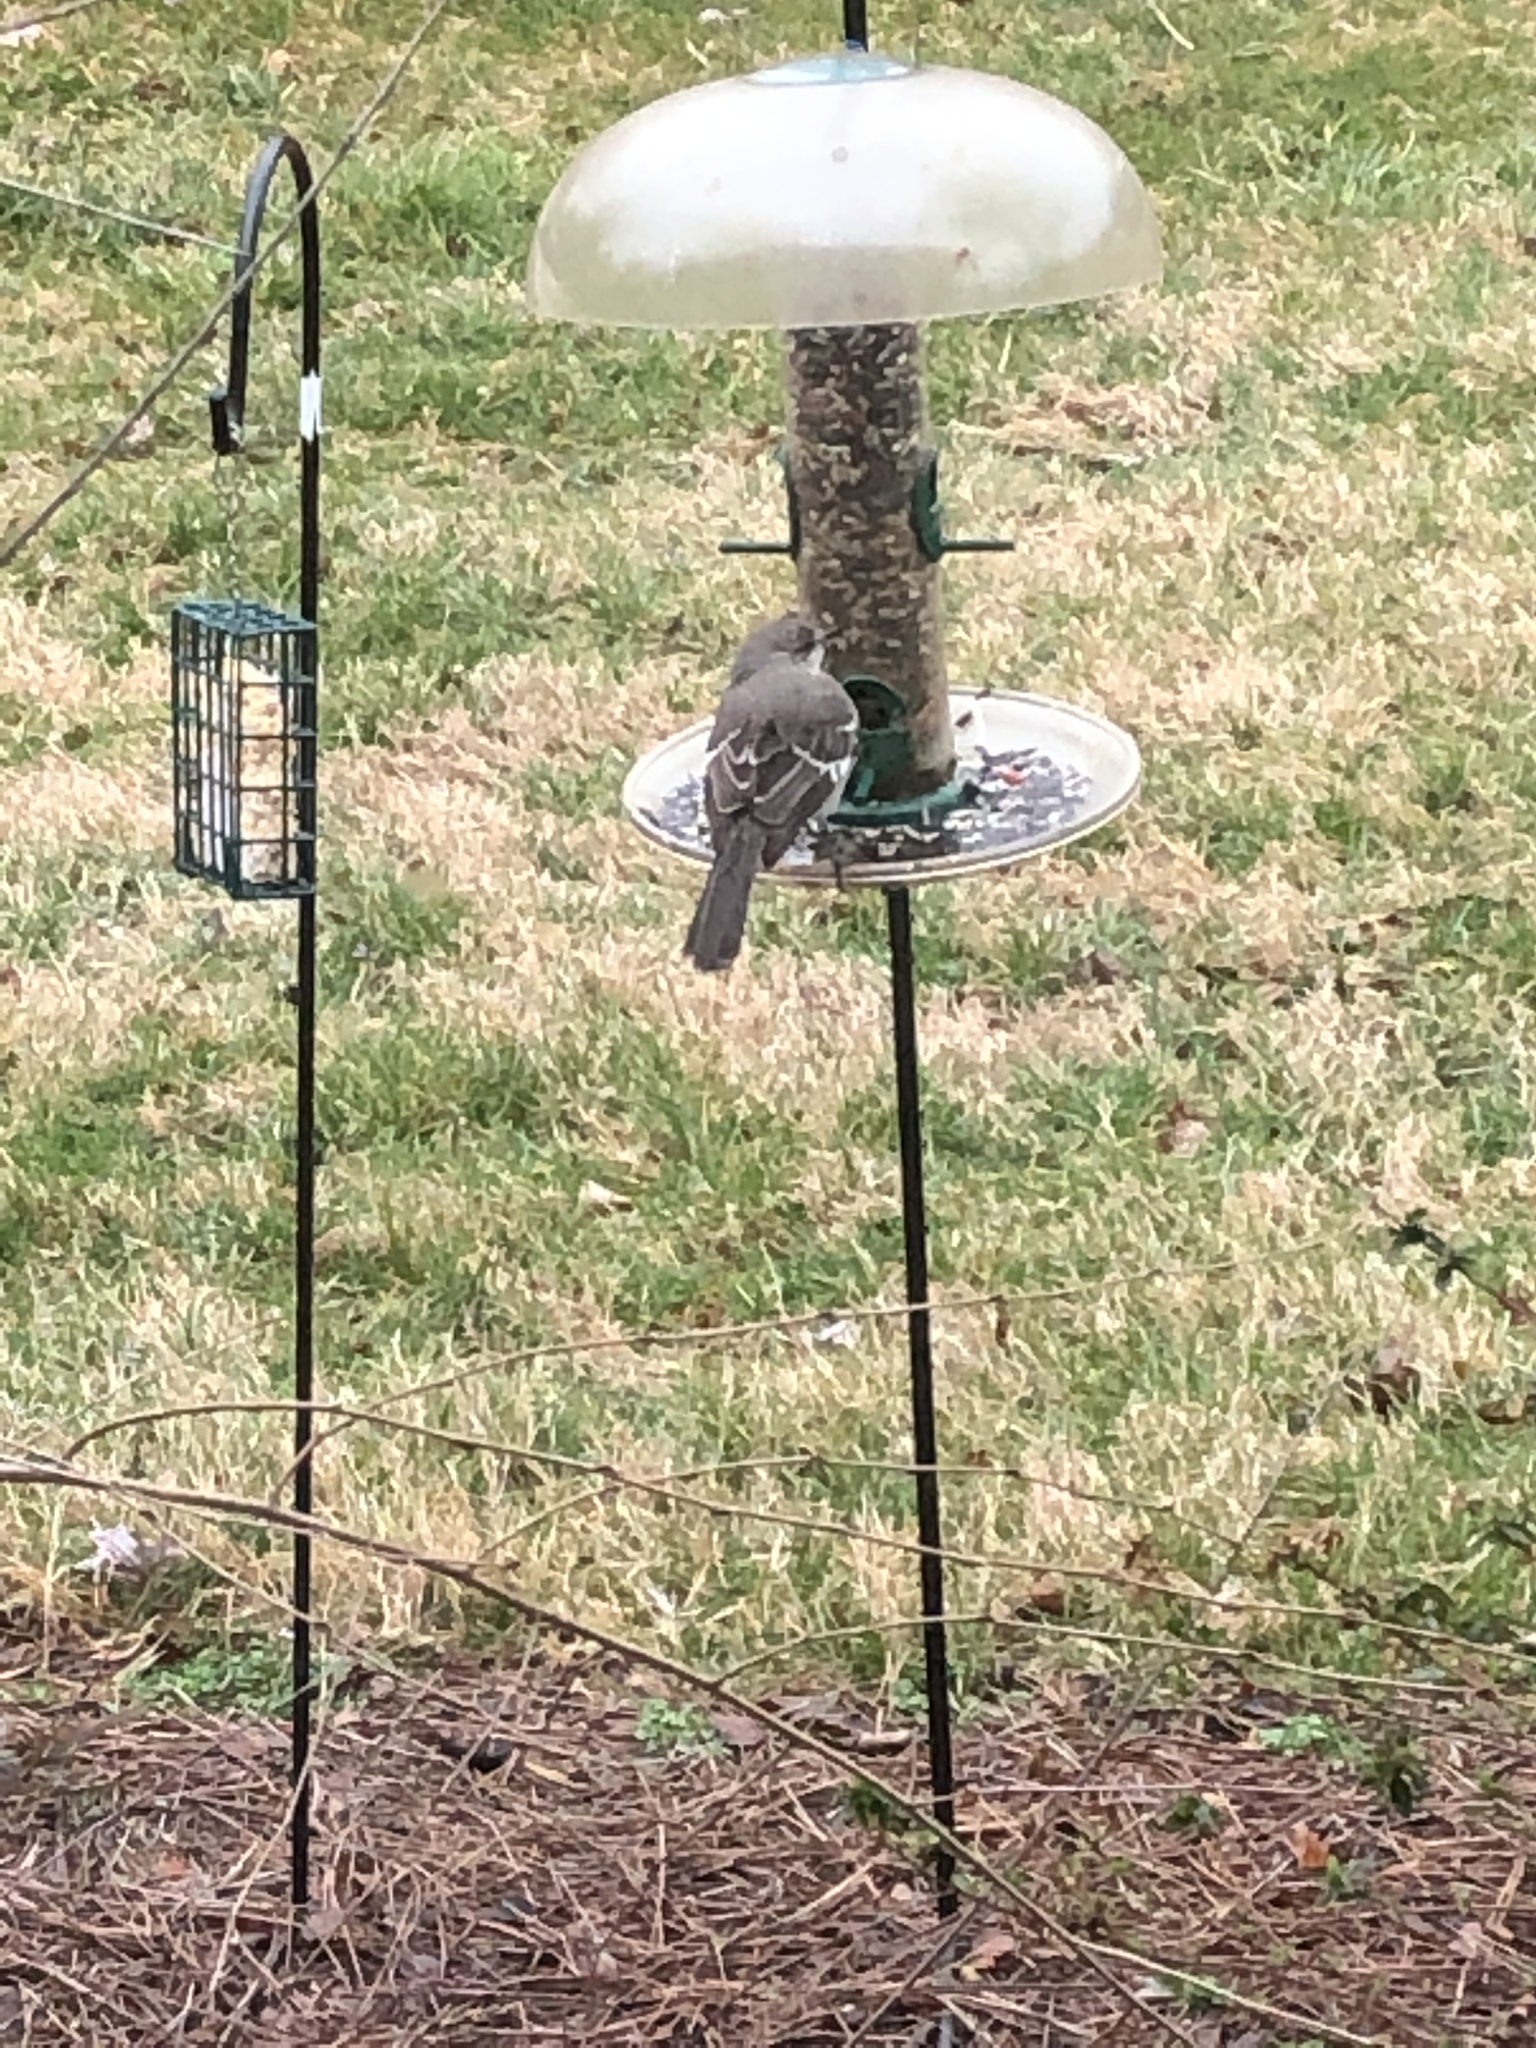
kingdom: Animalia
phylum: Chordata
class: Aves
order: Passeriformes
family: Mimidae
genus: Mimus
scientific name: Mimus polyglottos
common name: Northern mockingbird
